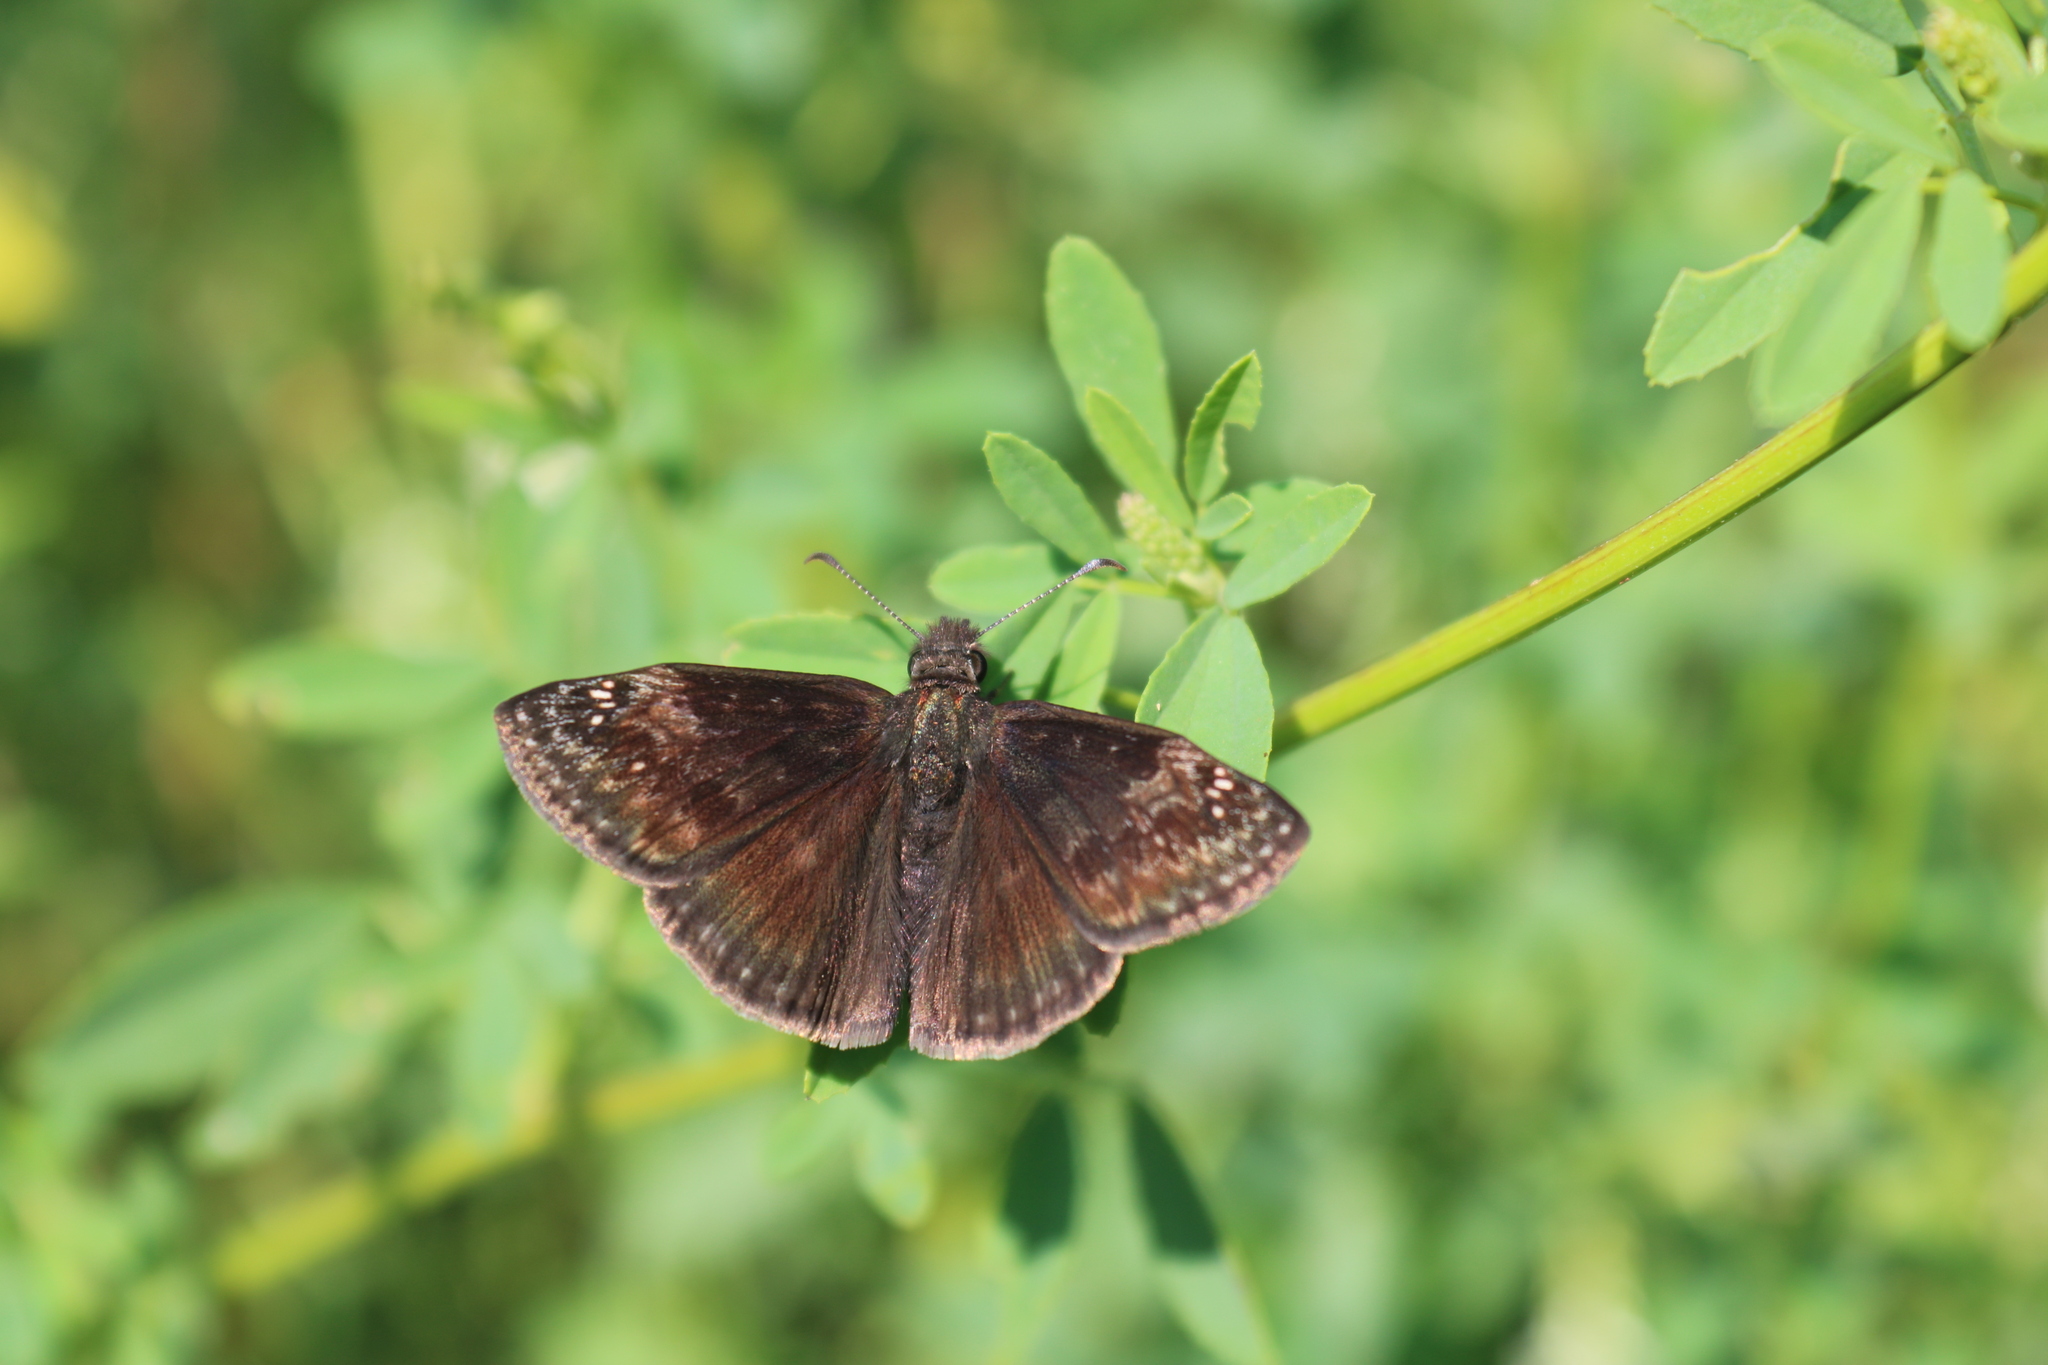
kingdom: Animalia
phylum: Arthropoda
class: Insecta
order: Lepidoptera
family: Hesperiidae
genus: Erynnis
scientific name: Erynnis baptisiae
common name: Wild indigo duskywing
